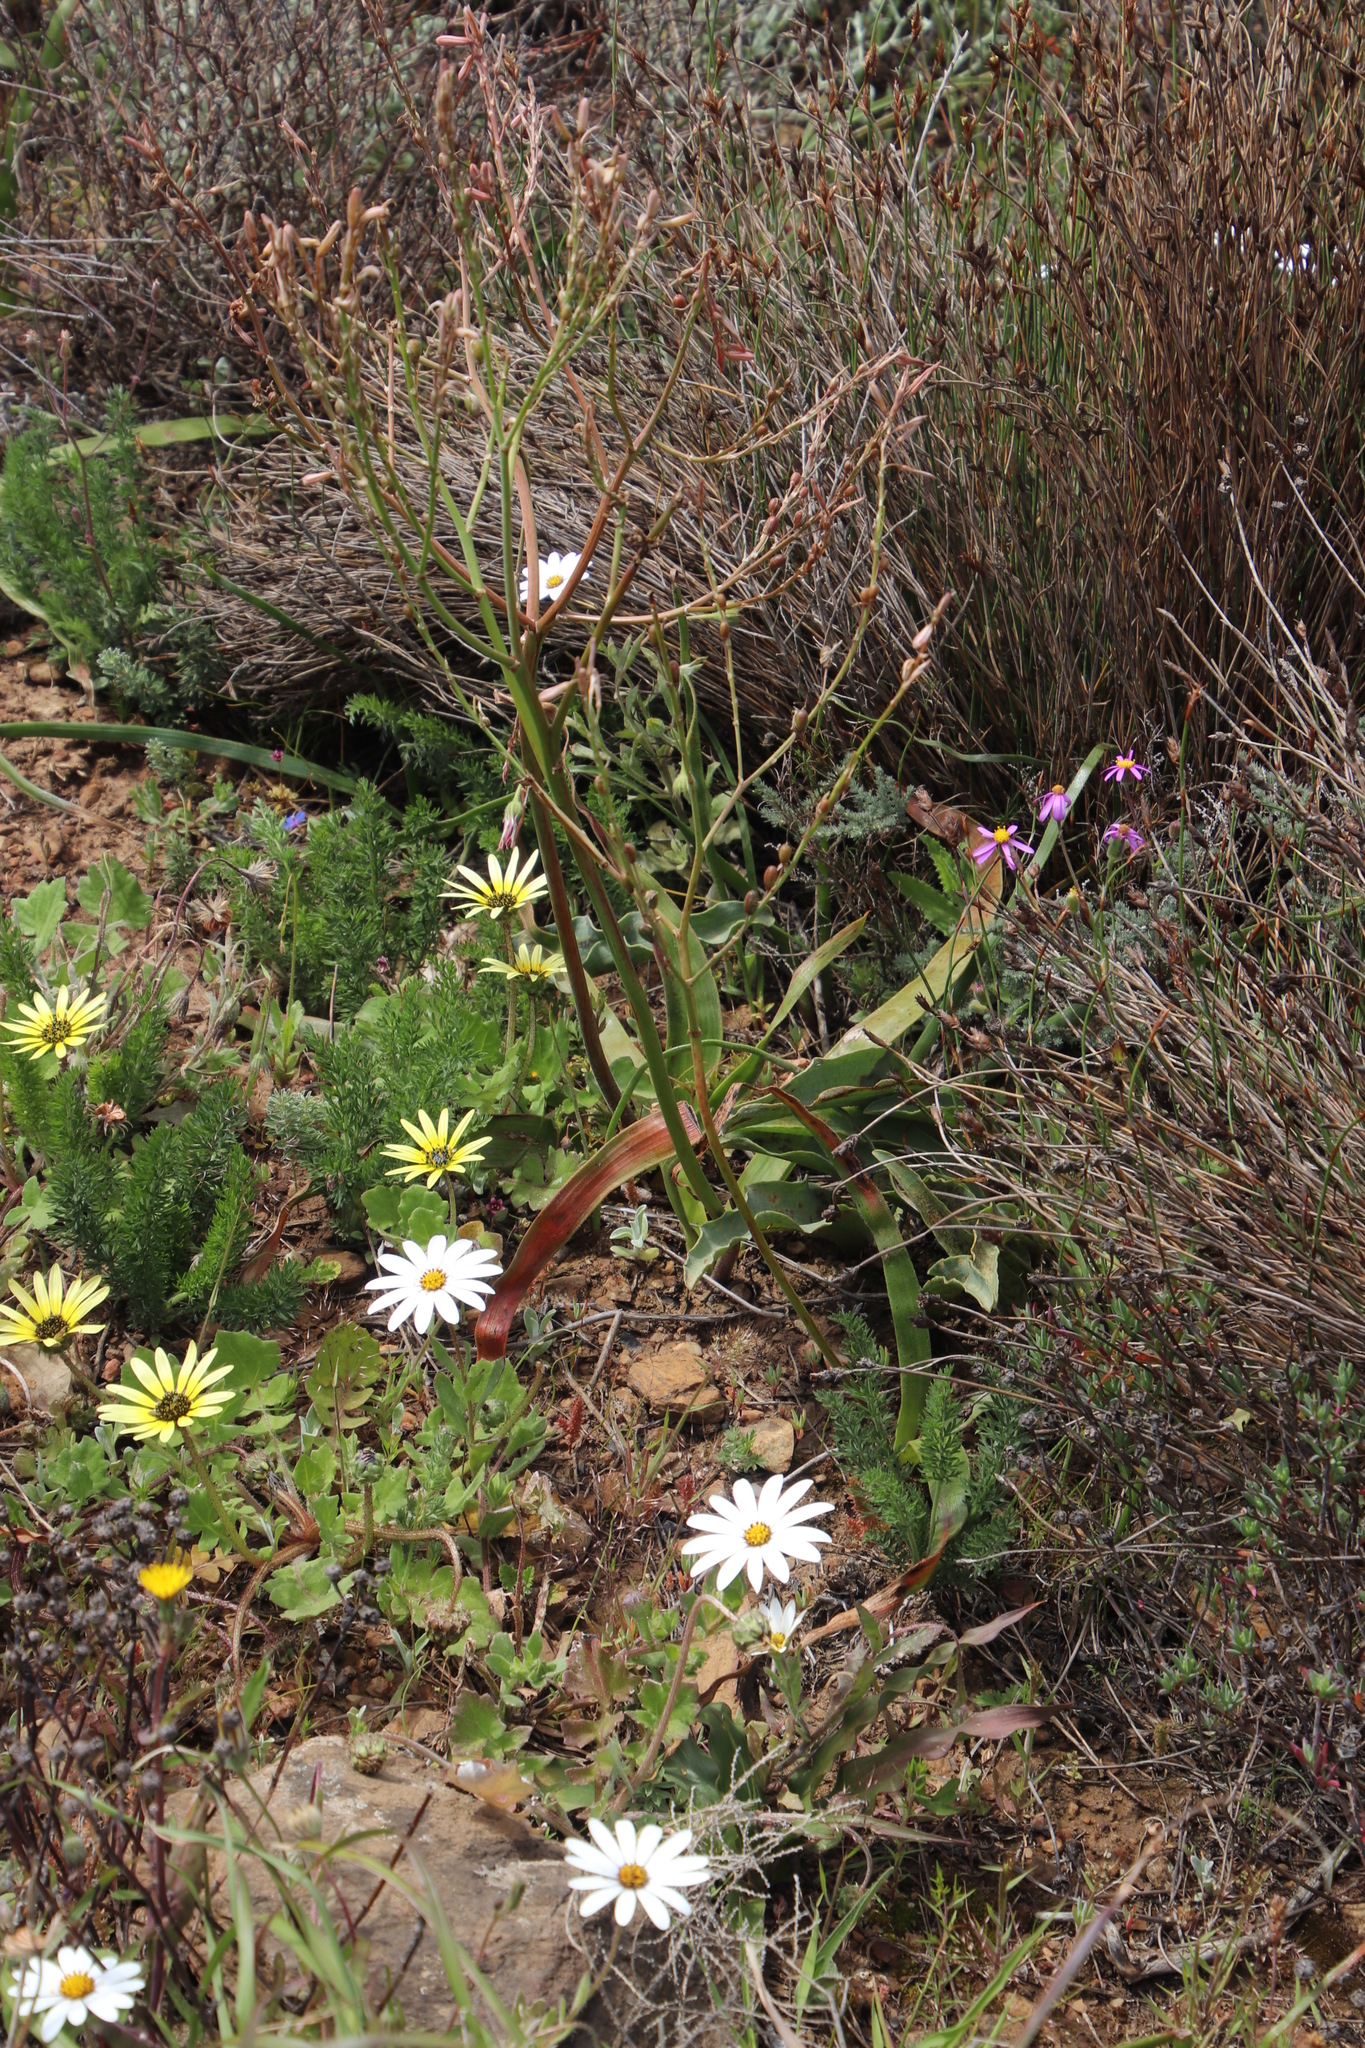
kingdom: Plantae
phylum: Tracheophyta
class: Liliopsida
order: Asparagales
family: Asphodelaceae
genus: Trachyandra
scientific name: Trachyandra ciliata
